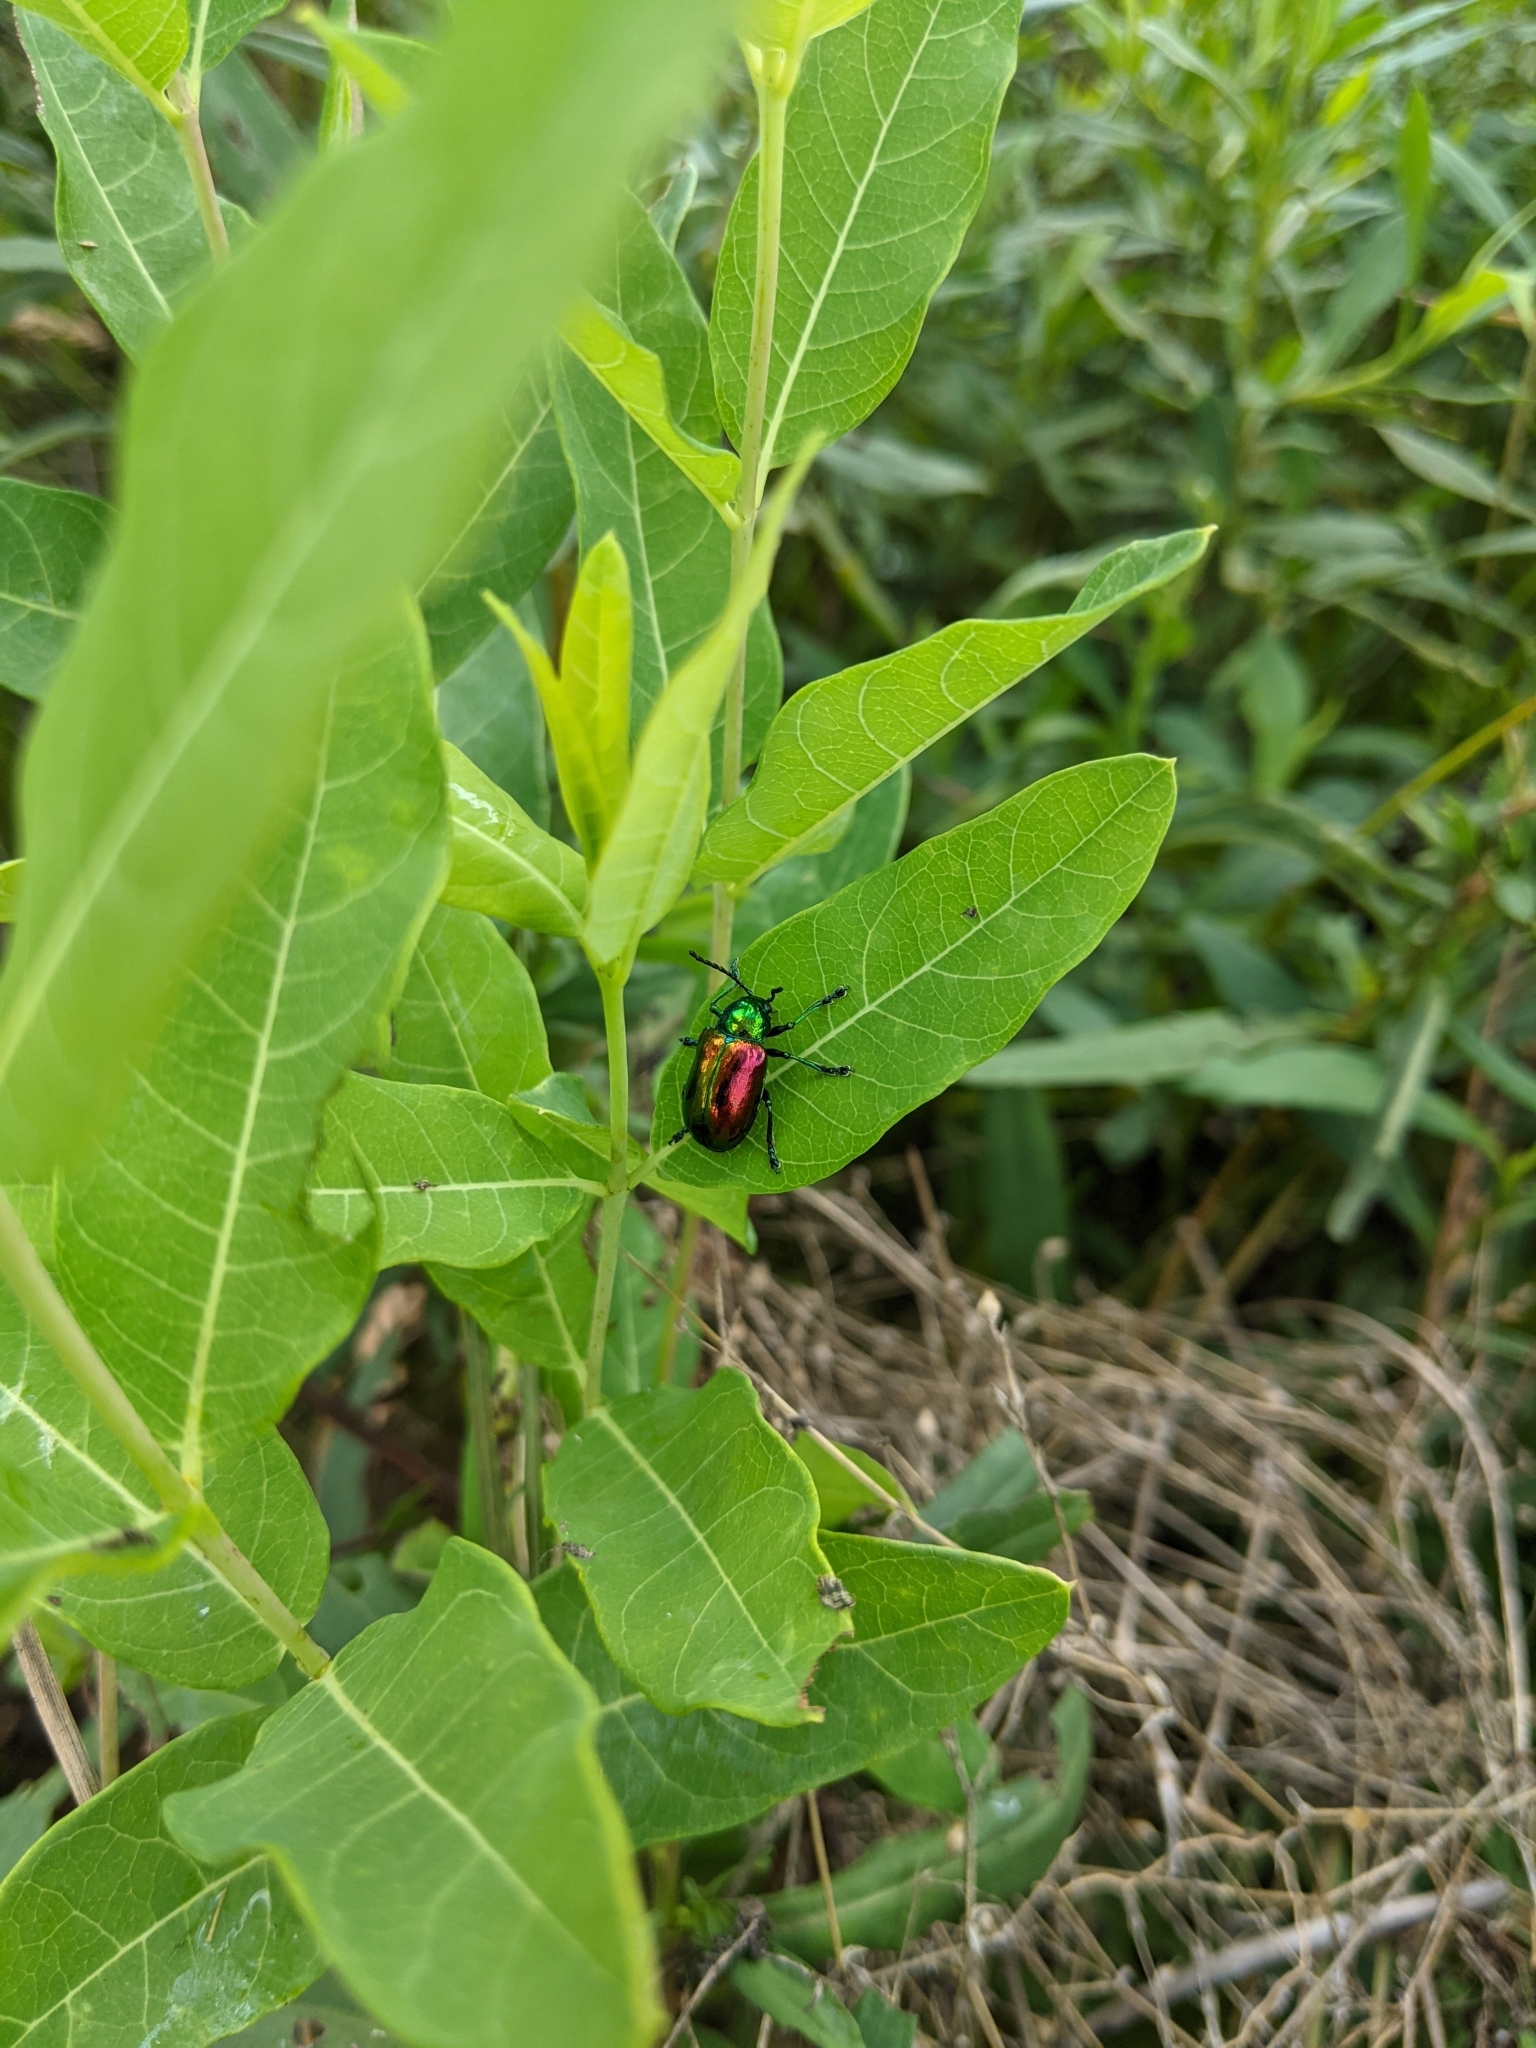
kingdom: Animalia
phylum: Arthropoda
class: Insecta
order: Coleoptera
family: Chrysomelidae
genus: Chrysochus
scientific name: Chrysochus auratus
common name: Dogbane leaf beetle
